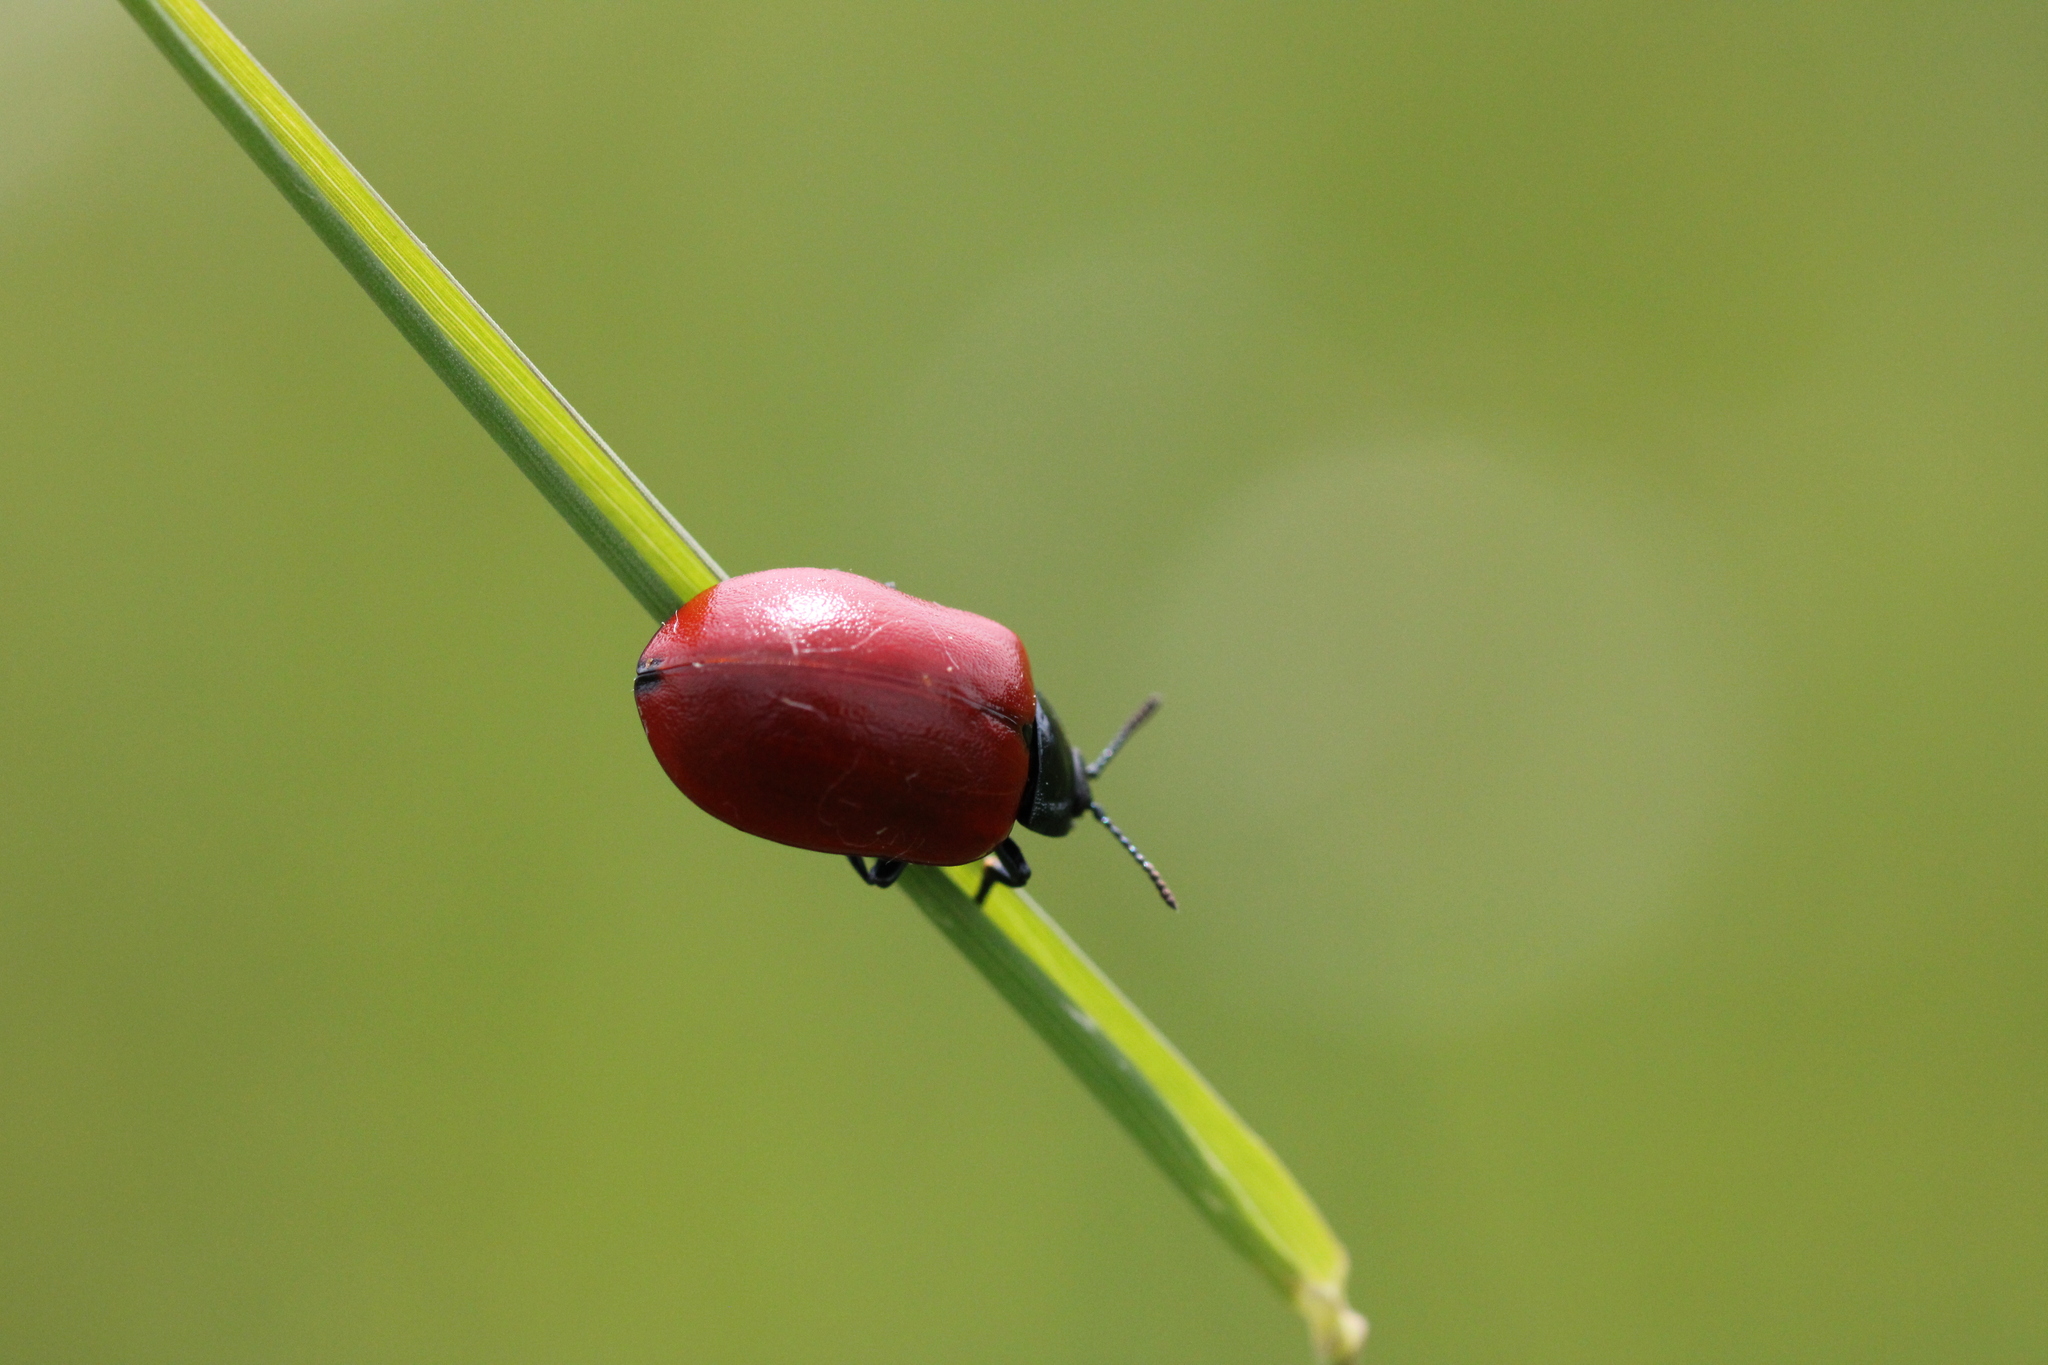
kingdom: Animalia
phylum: Arthropoda
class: Insecta
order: Coleoptera
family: Chrysomelidae
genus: Chrysomela
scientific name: Chrysomela populi
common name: Red poplar leaf beetle
